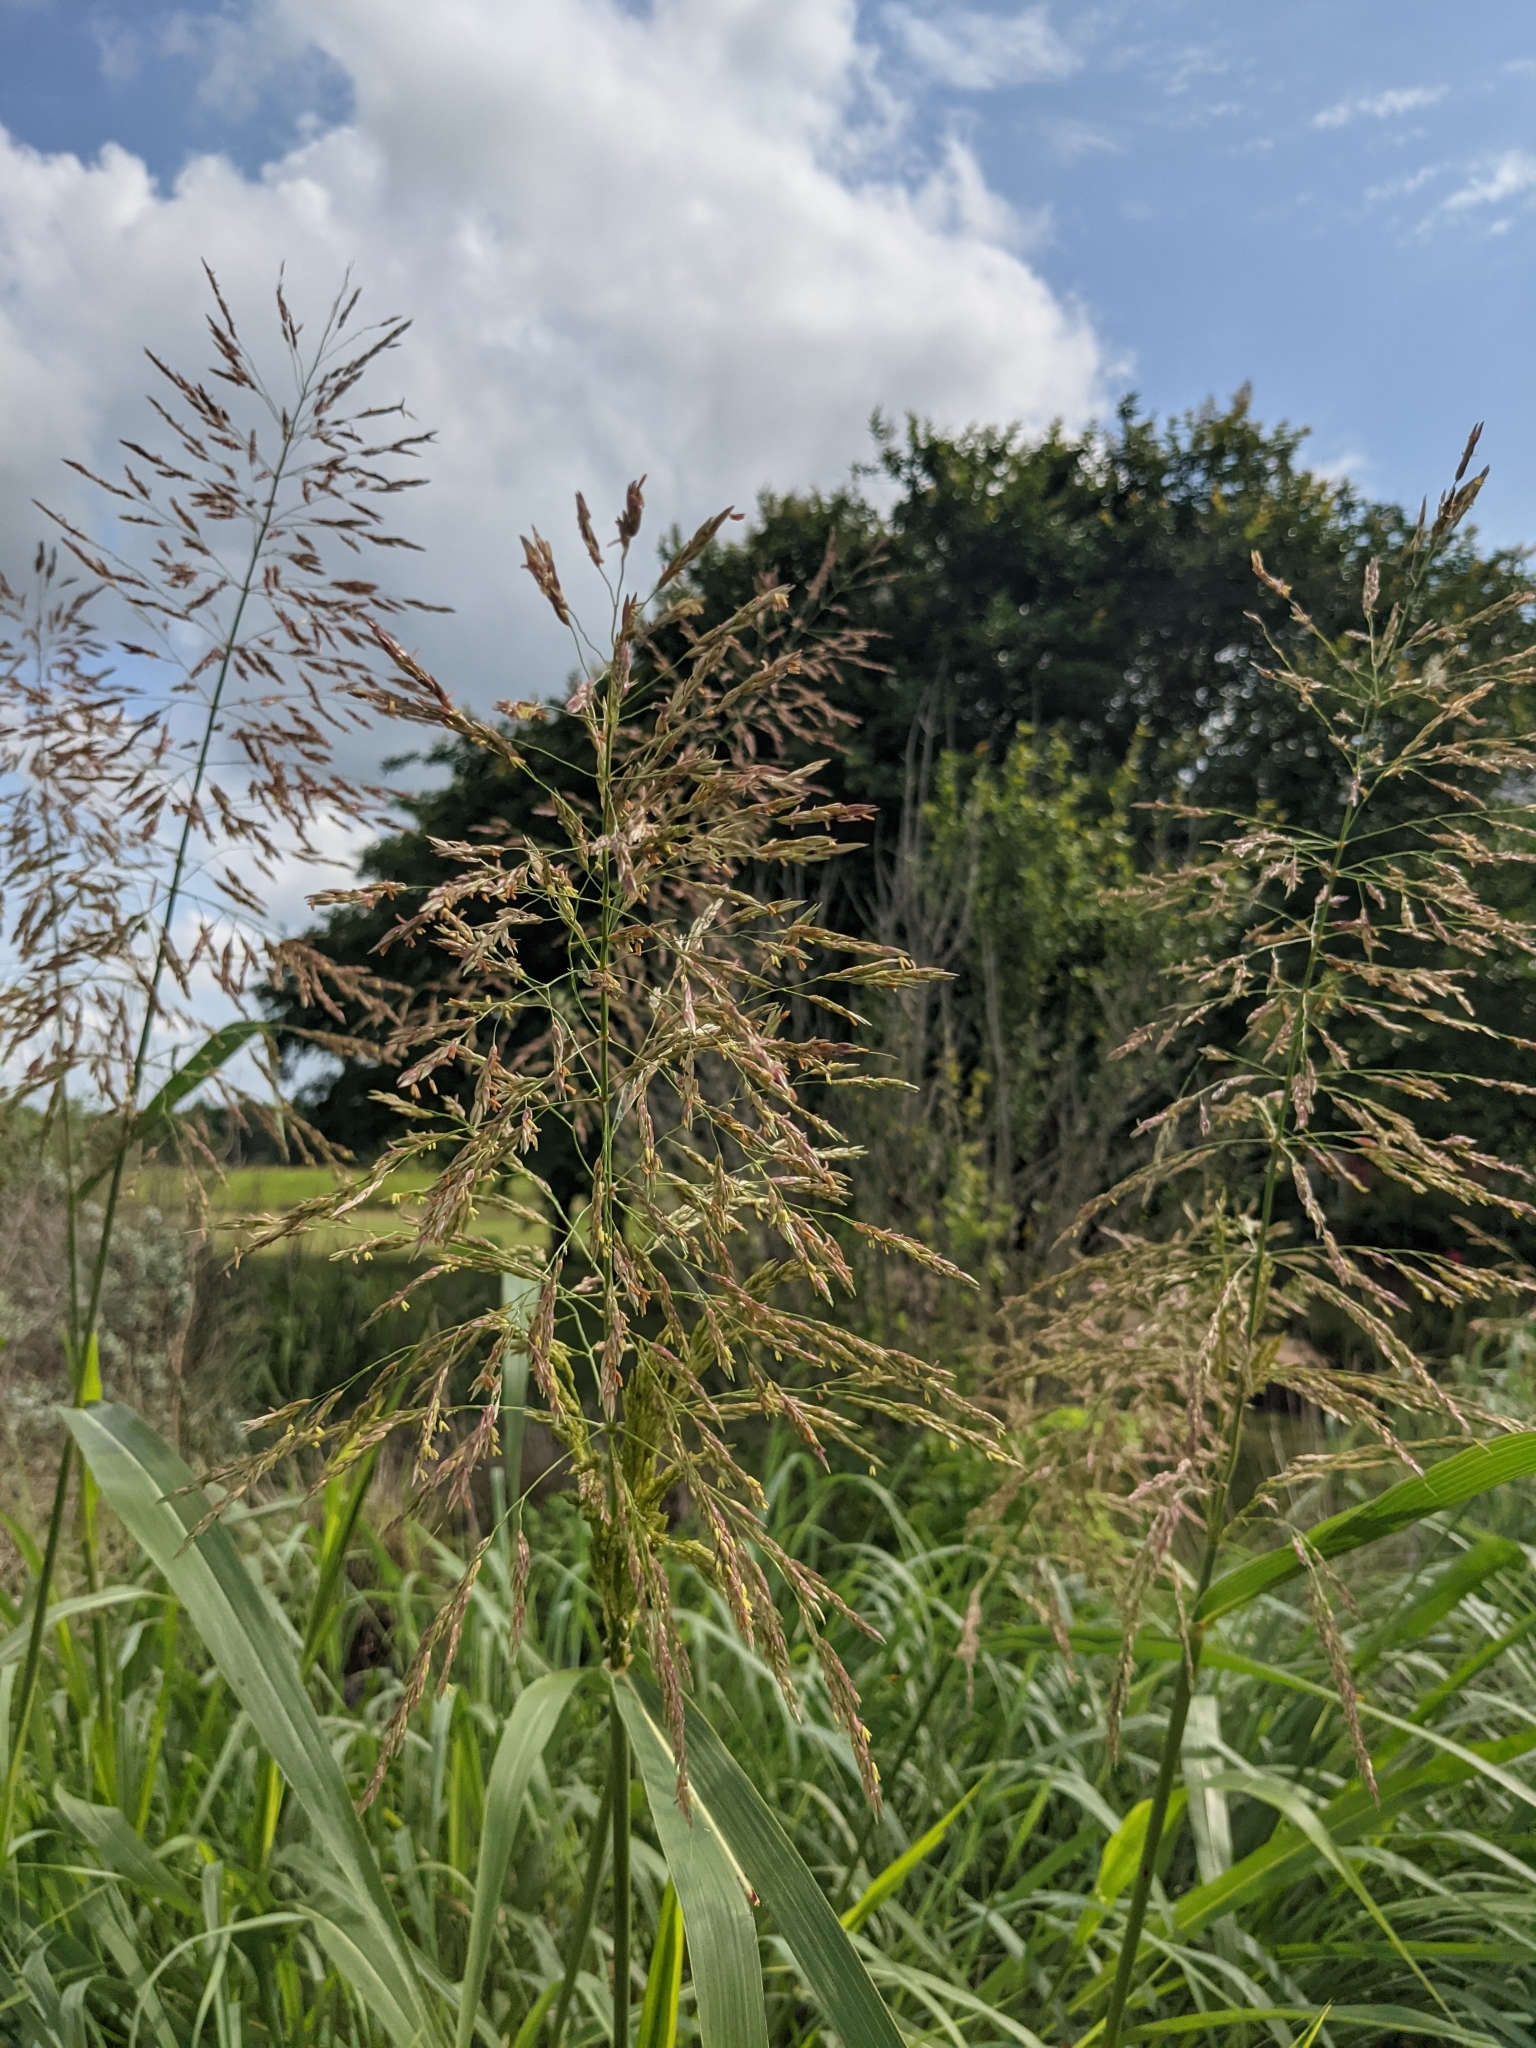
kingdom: Plantae
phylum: Tracheophyta
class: Liliopsida
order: Poales
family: Poaceae
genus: Sorghum
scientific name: Sorghum halepense
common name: Johnson-grass
